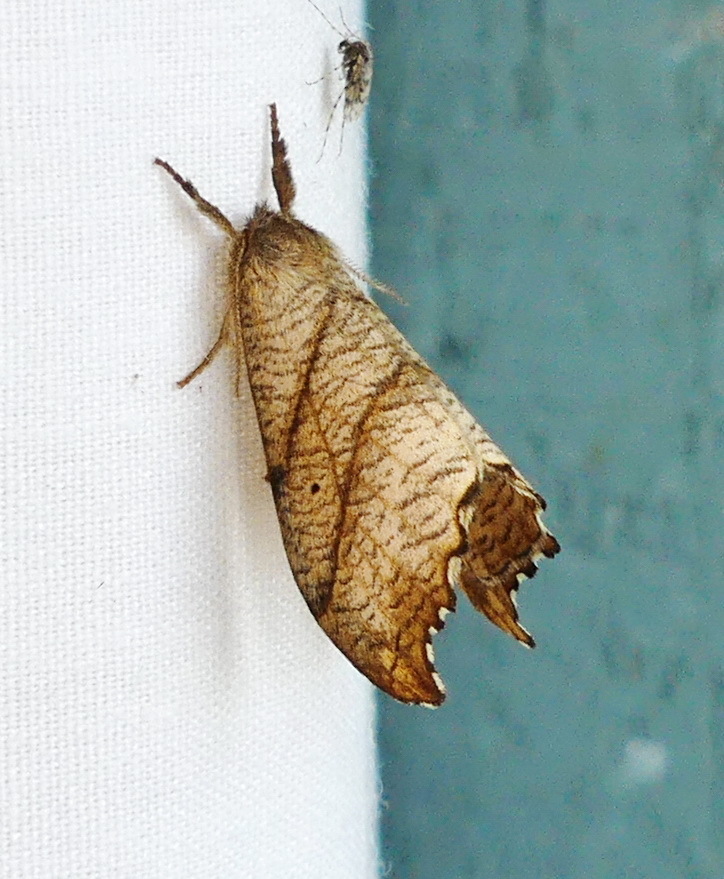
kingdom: Animalia
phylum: Arthropoda
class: Insecta
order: Lepidoptera
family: Drepanidae
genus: Falcaria
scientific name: Falcaria bilineata
